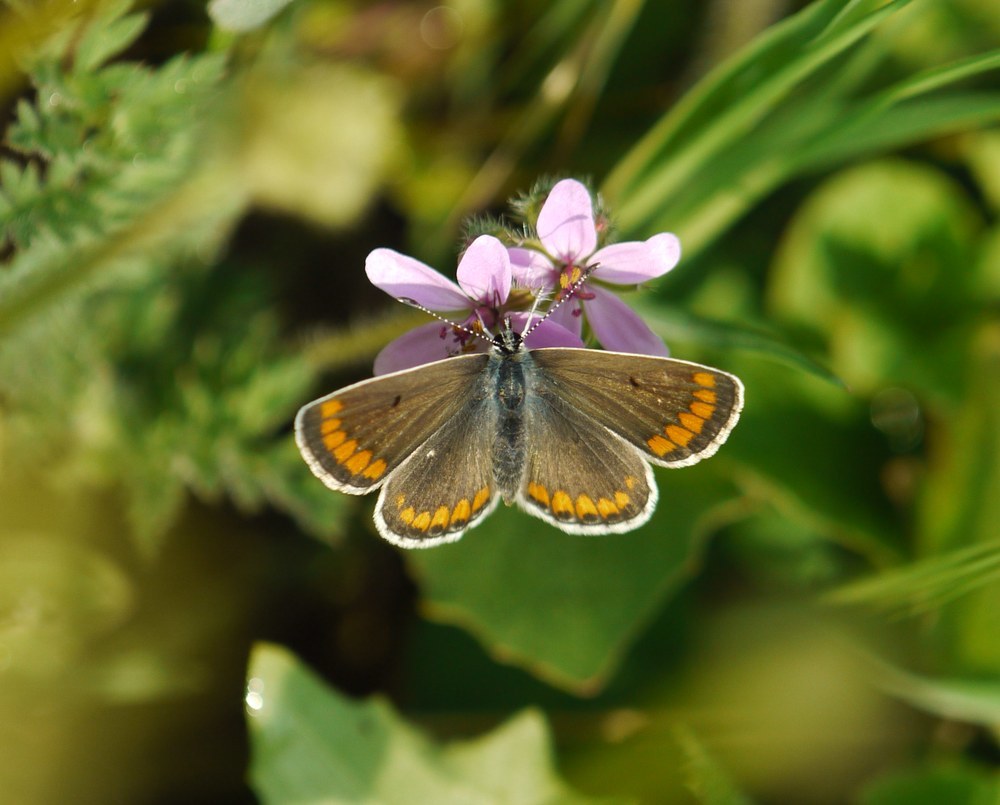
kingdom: Animalia
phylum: Arthropoda
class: Insecta
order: Lepidoptera
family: Lycaenidae
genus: Aricia
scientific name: Aricia agestis
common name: Brown argus
